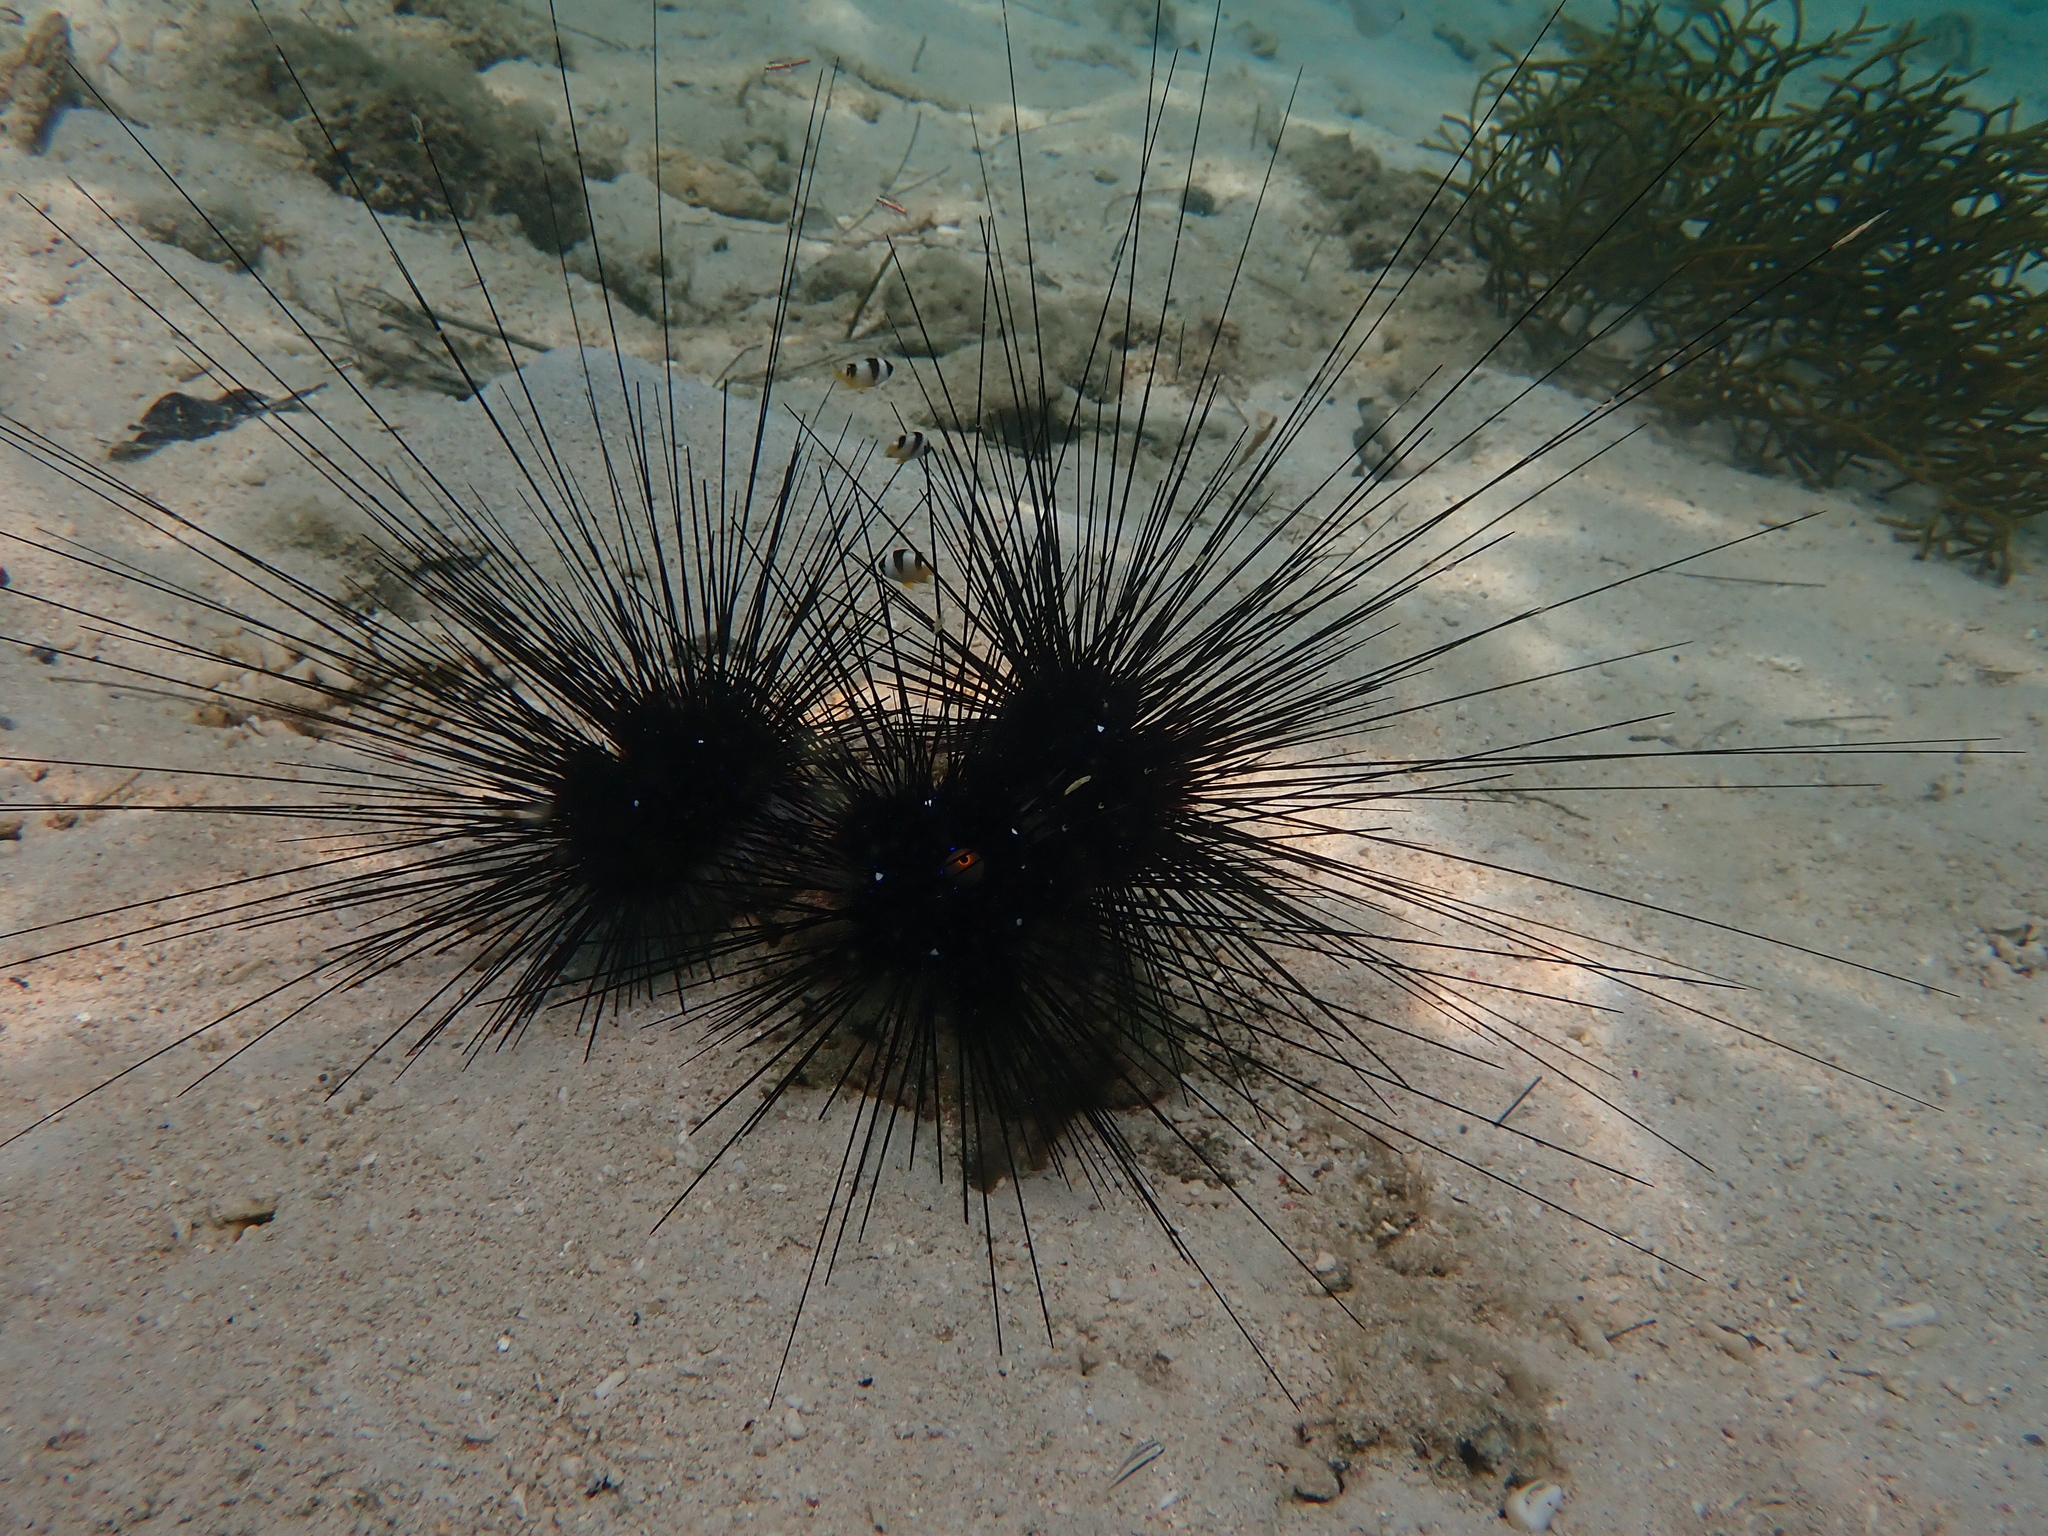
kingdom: Animalia
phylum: Echinodermata
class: Echinoidea
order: Diadematoida
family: Diadematidae
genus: Diadema
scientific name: Diadema setosum
